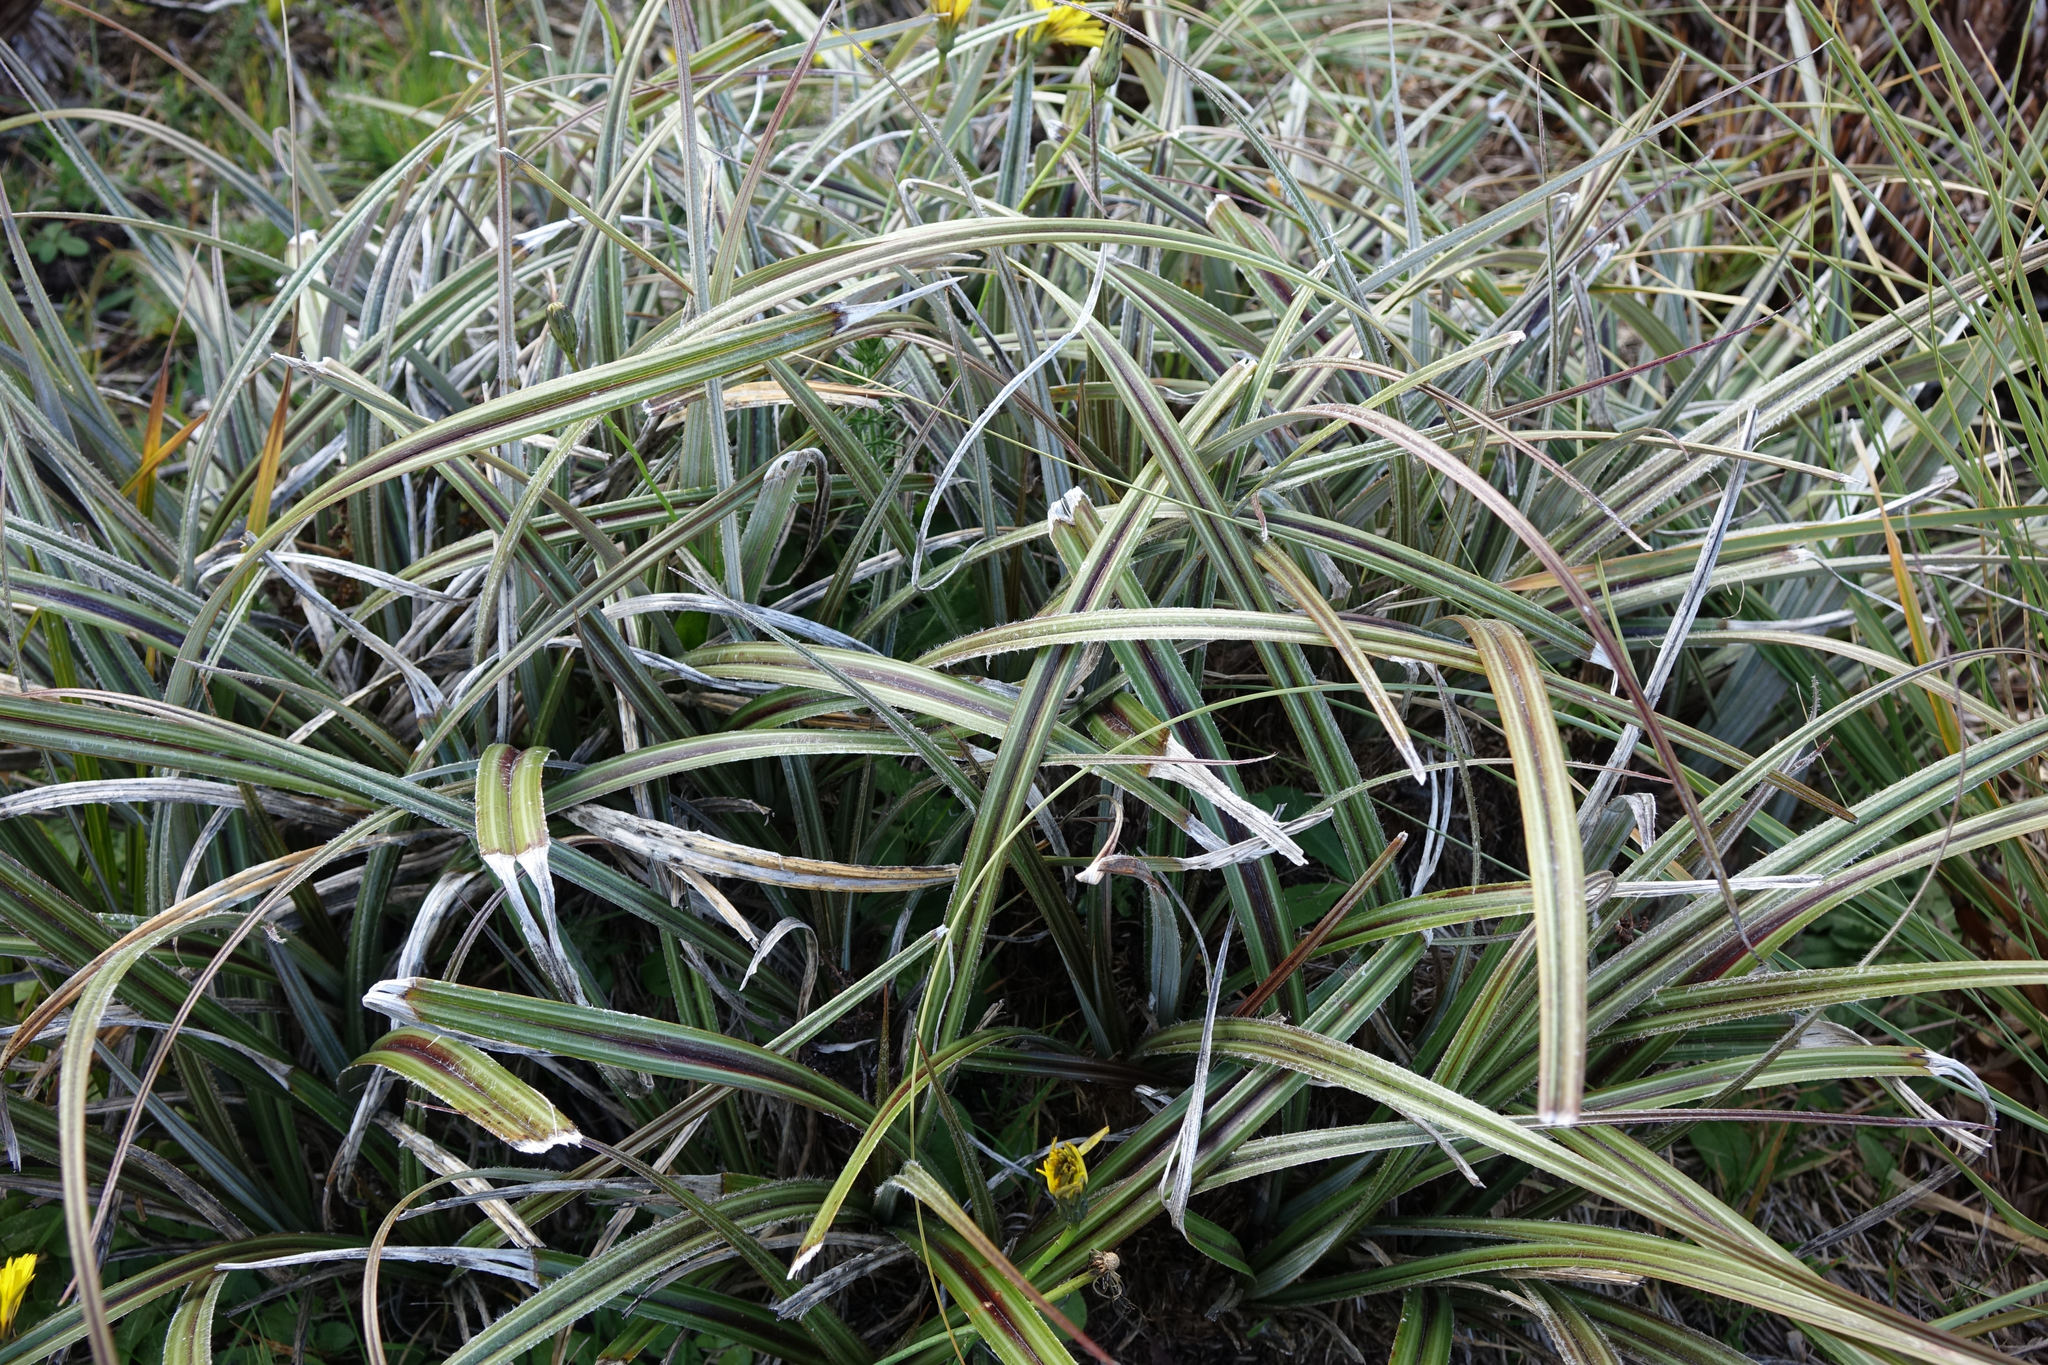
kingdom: Plantae
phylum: Tracheophyta
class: Liliopsida
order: Asparagales
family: Asteliaceae
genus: Astelia
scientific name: Astelia nervosa
